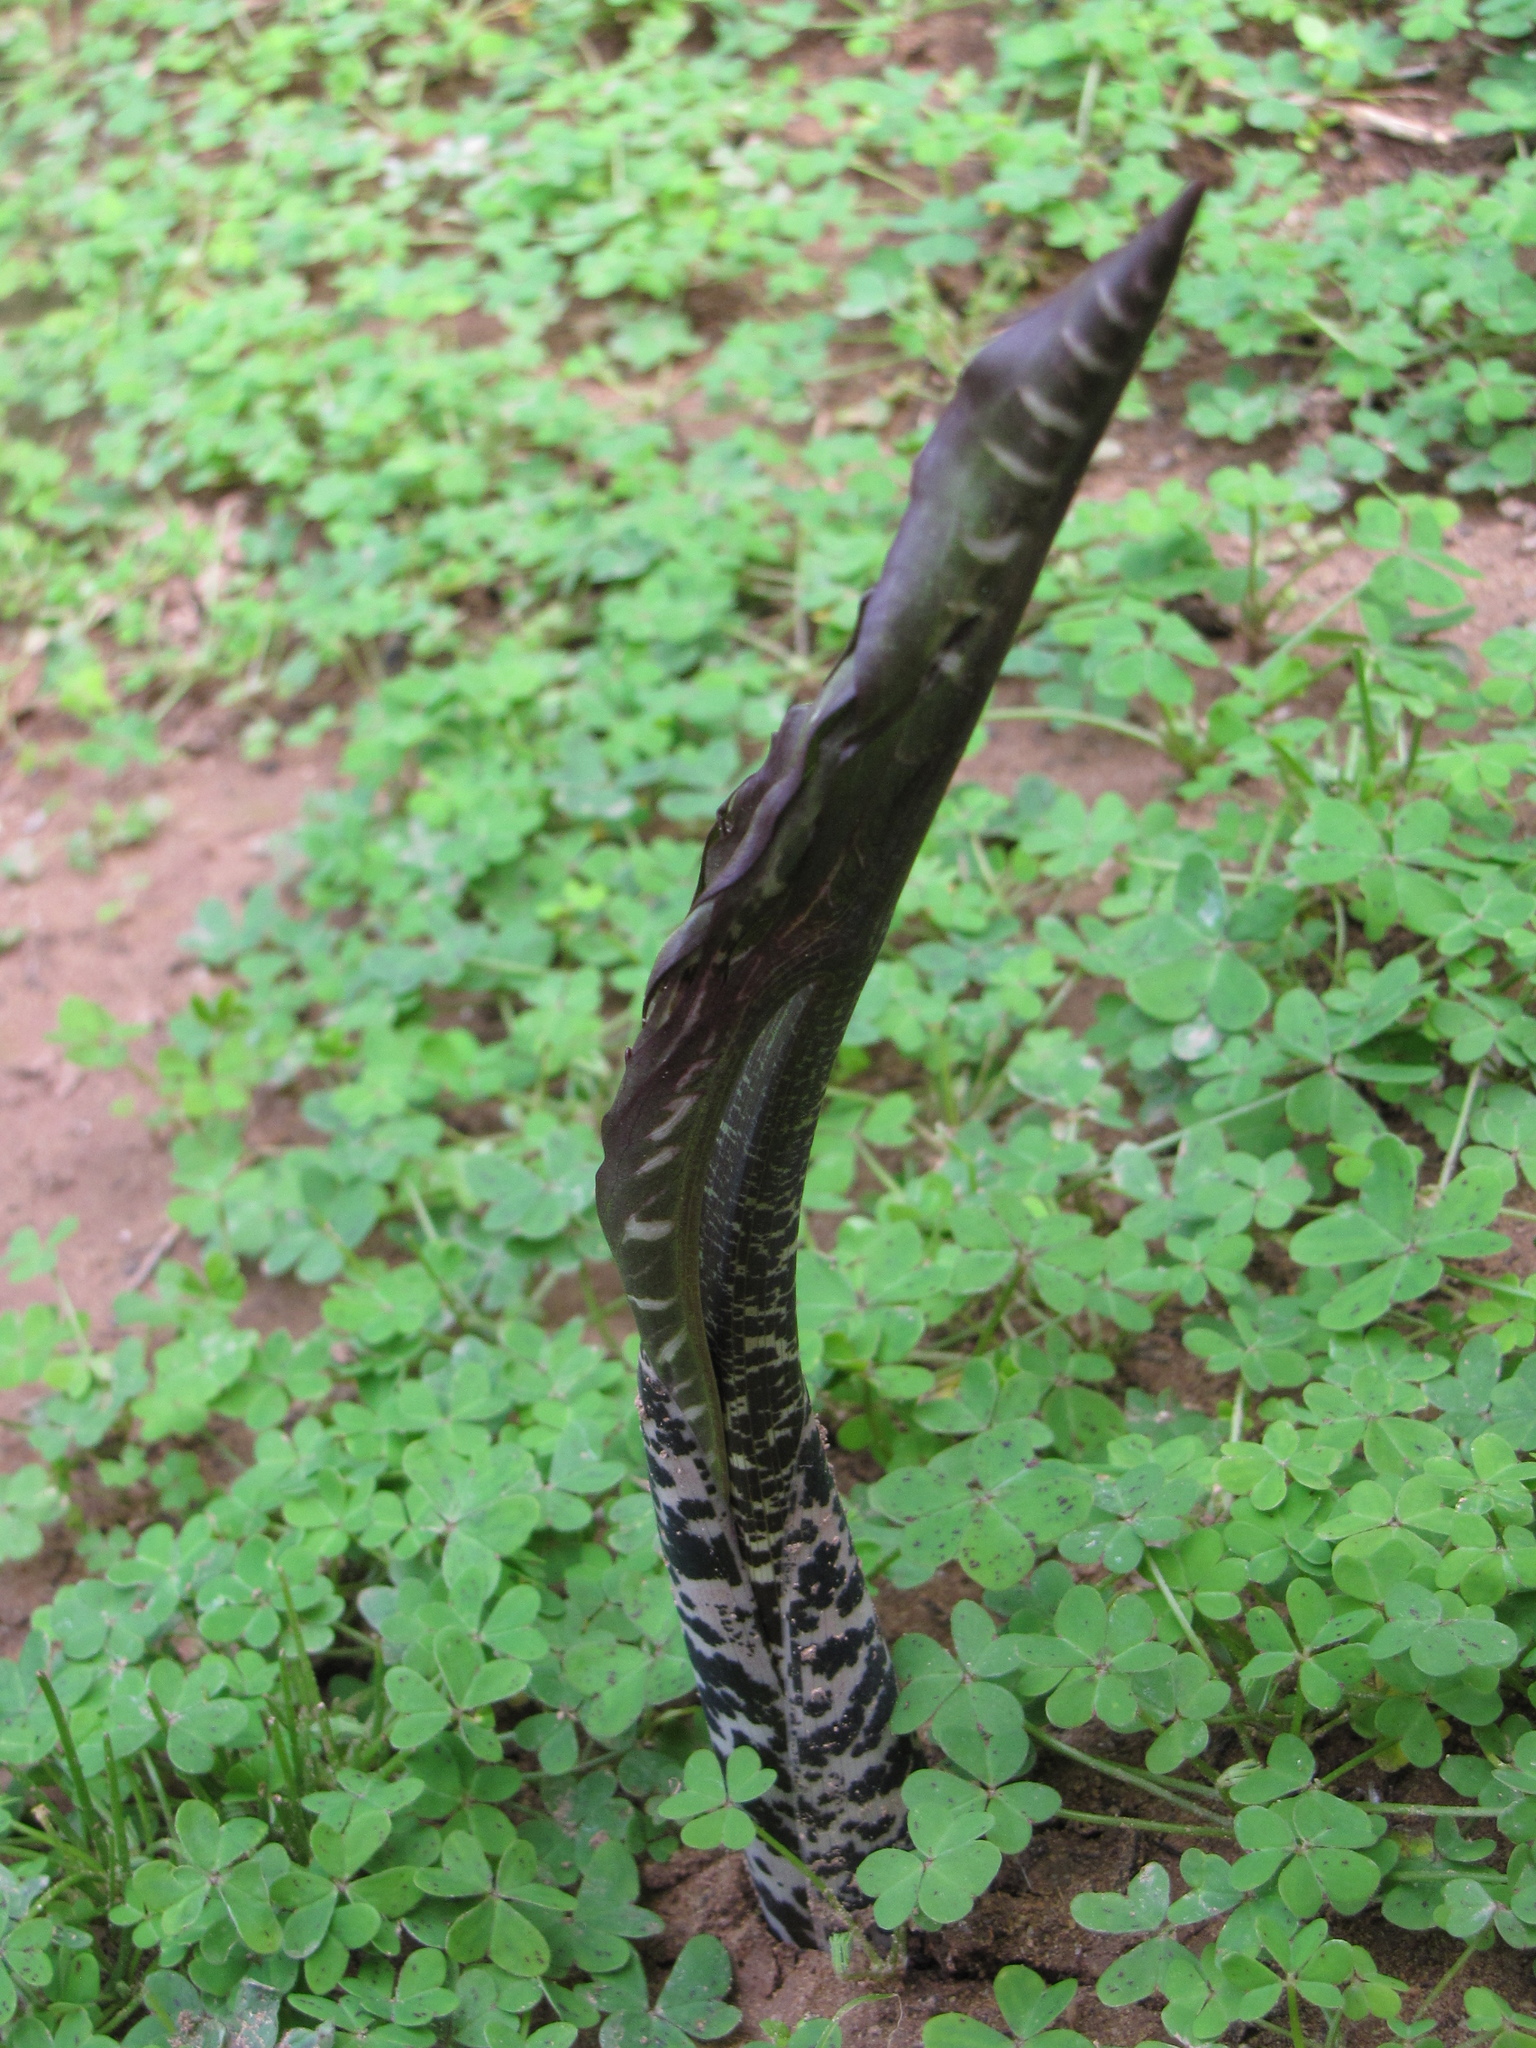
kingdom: Plantae
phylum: Tracheophyta
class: Liliopsida
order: Alismatales
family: Araceae
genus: Dracunculus
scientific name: Dracunculus vulgaris
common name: Dragon arum
